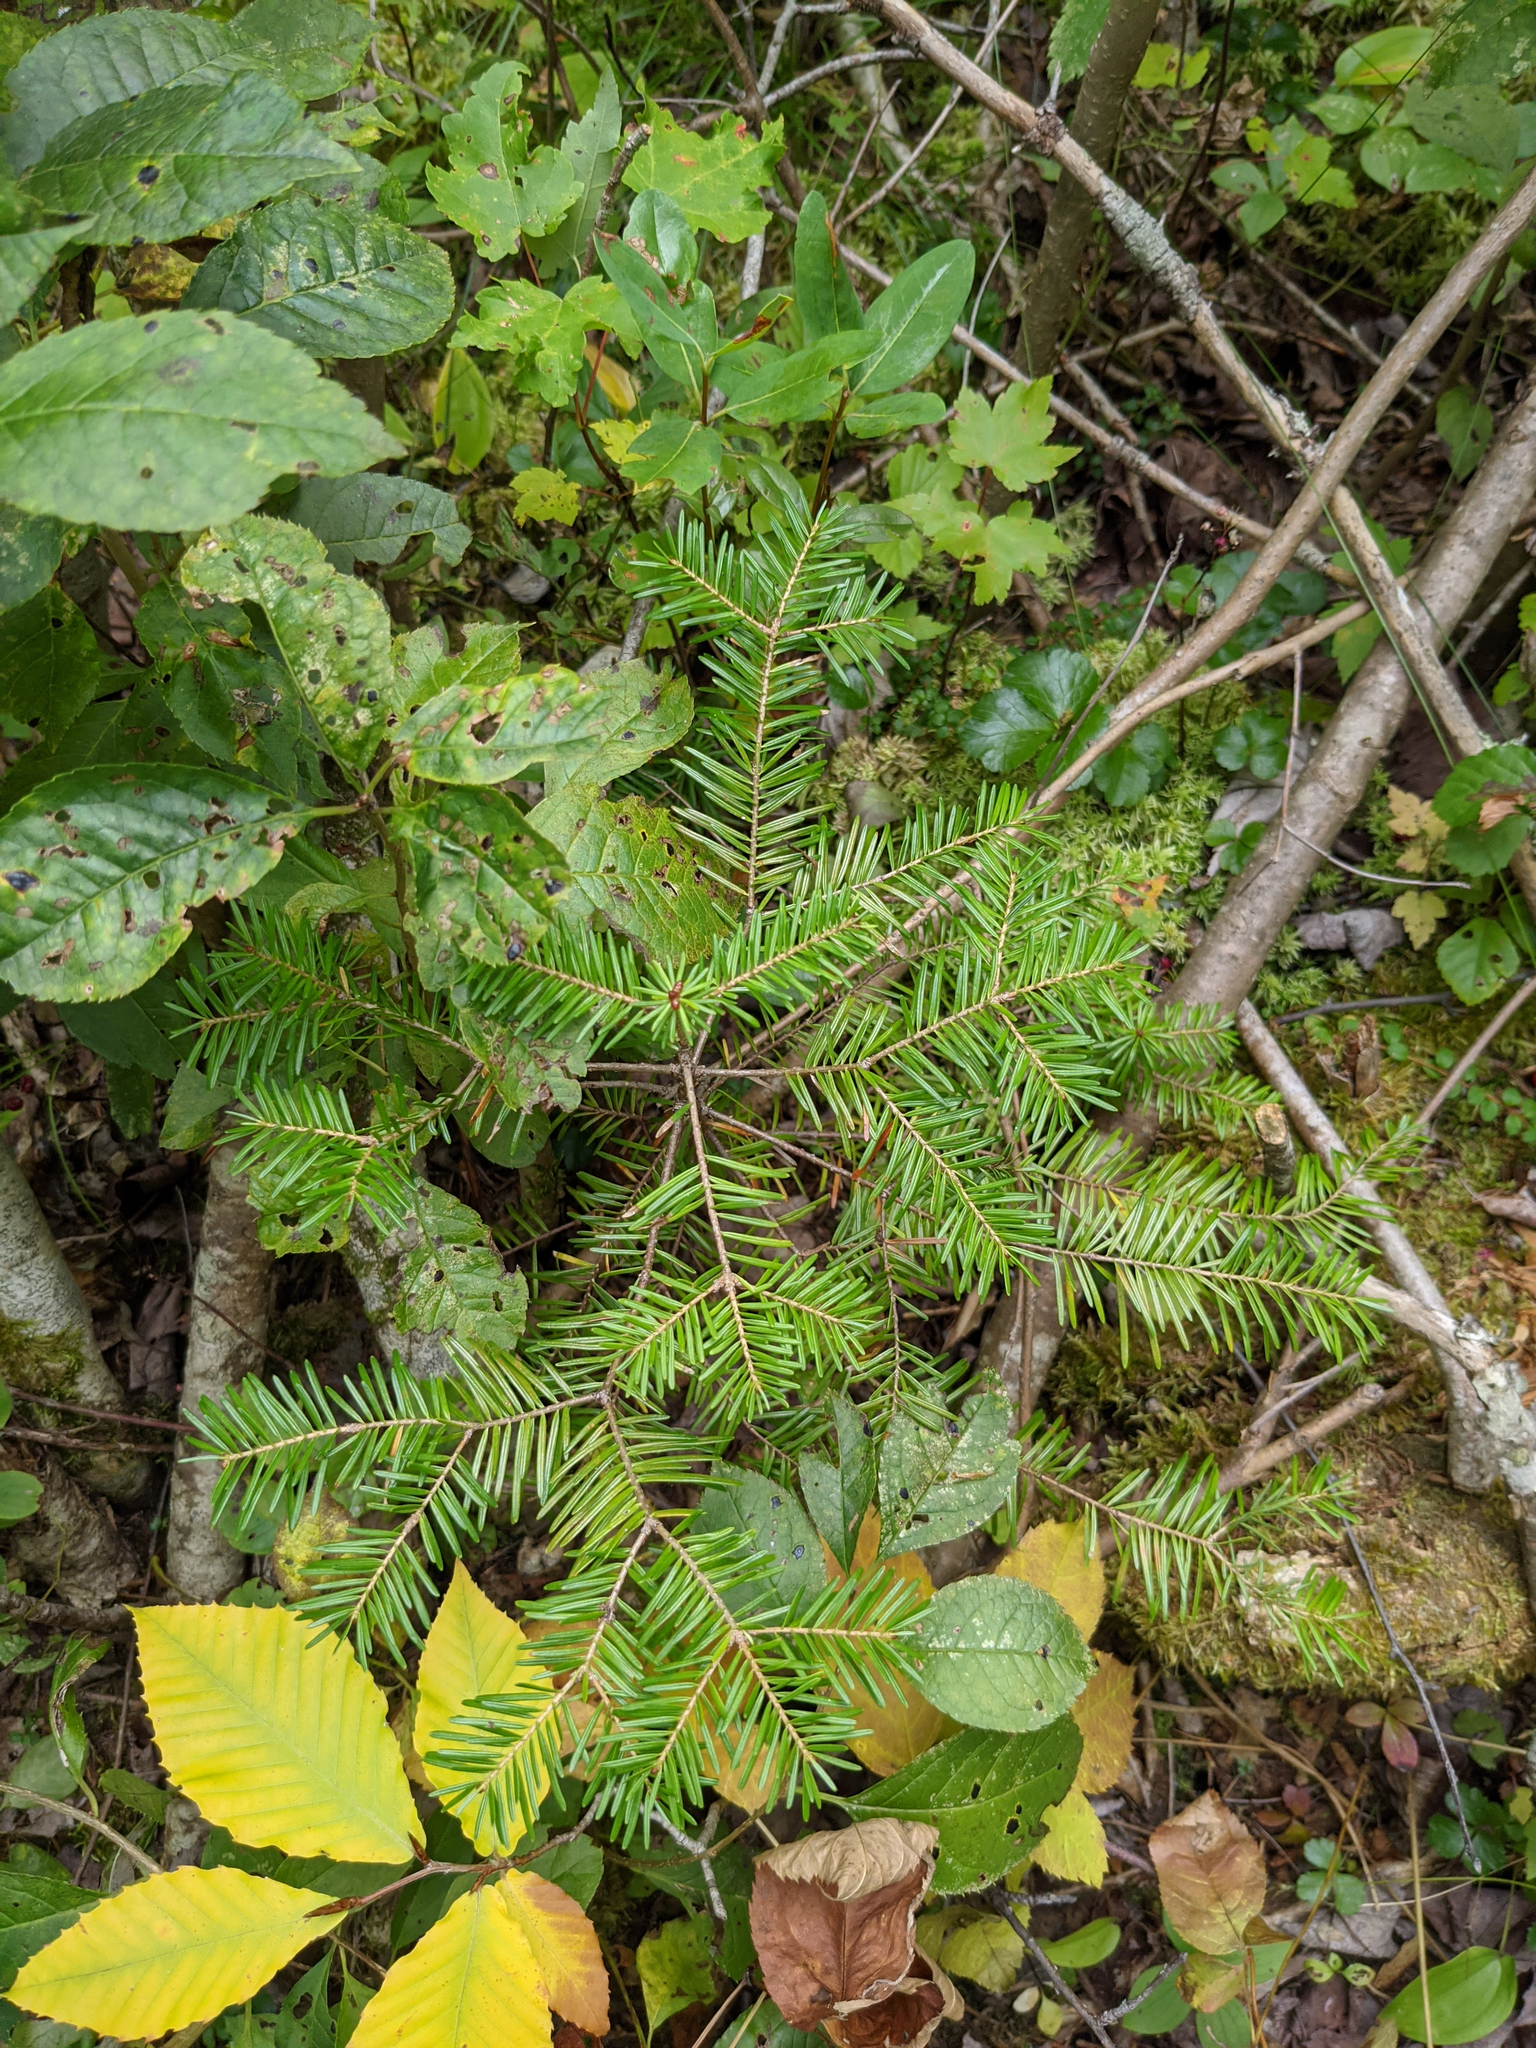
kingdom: Plantae
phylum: Tracheophyta
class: Pinopsida
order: Pinales
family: Pinaceae
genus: Abies
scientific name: Abies balsamea
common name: Balsam fir
